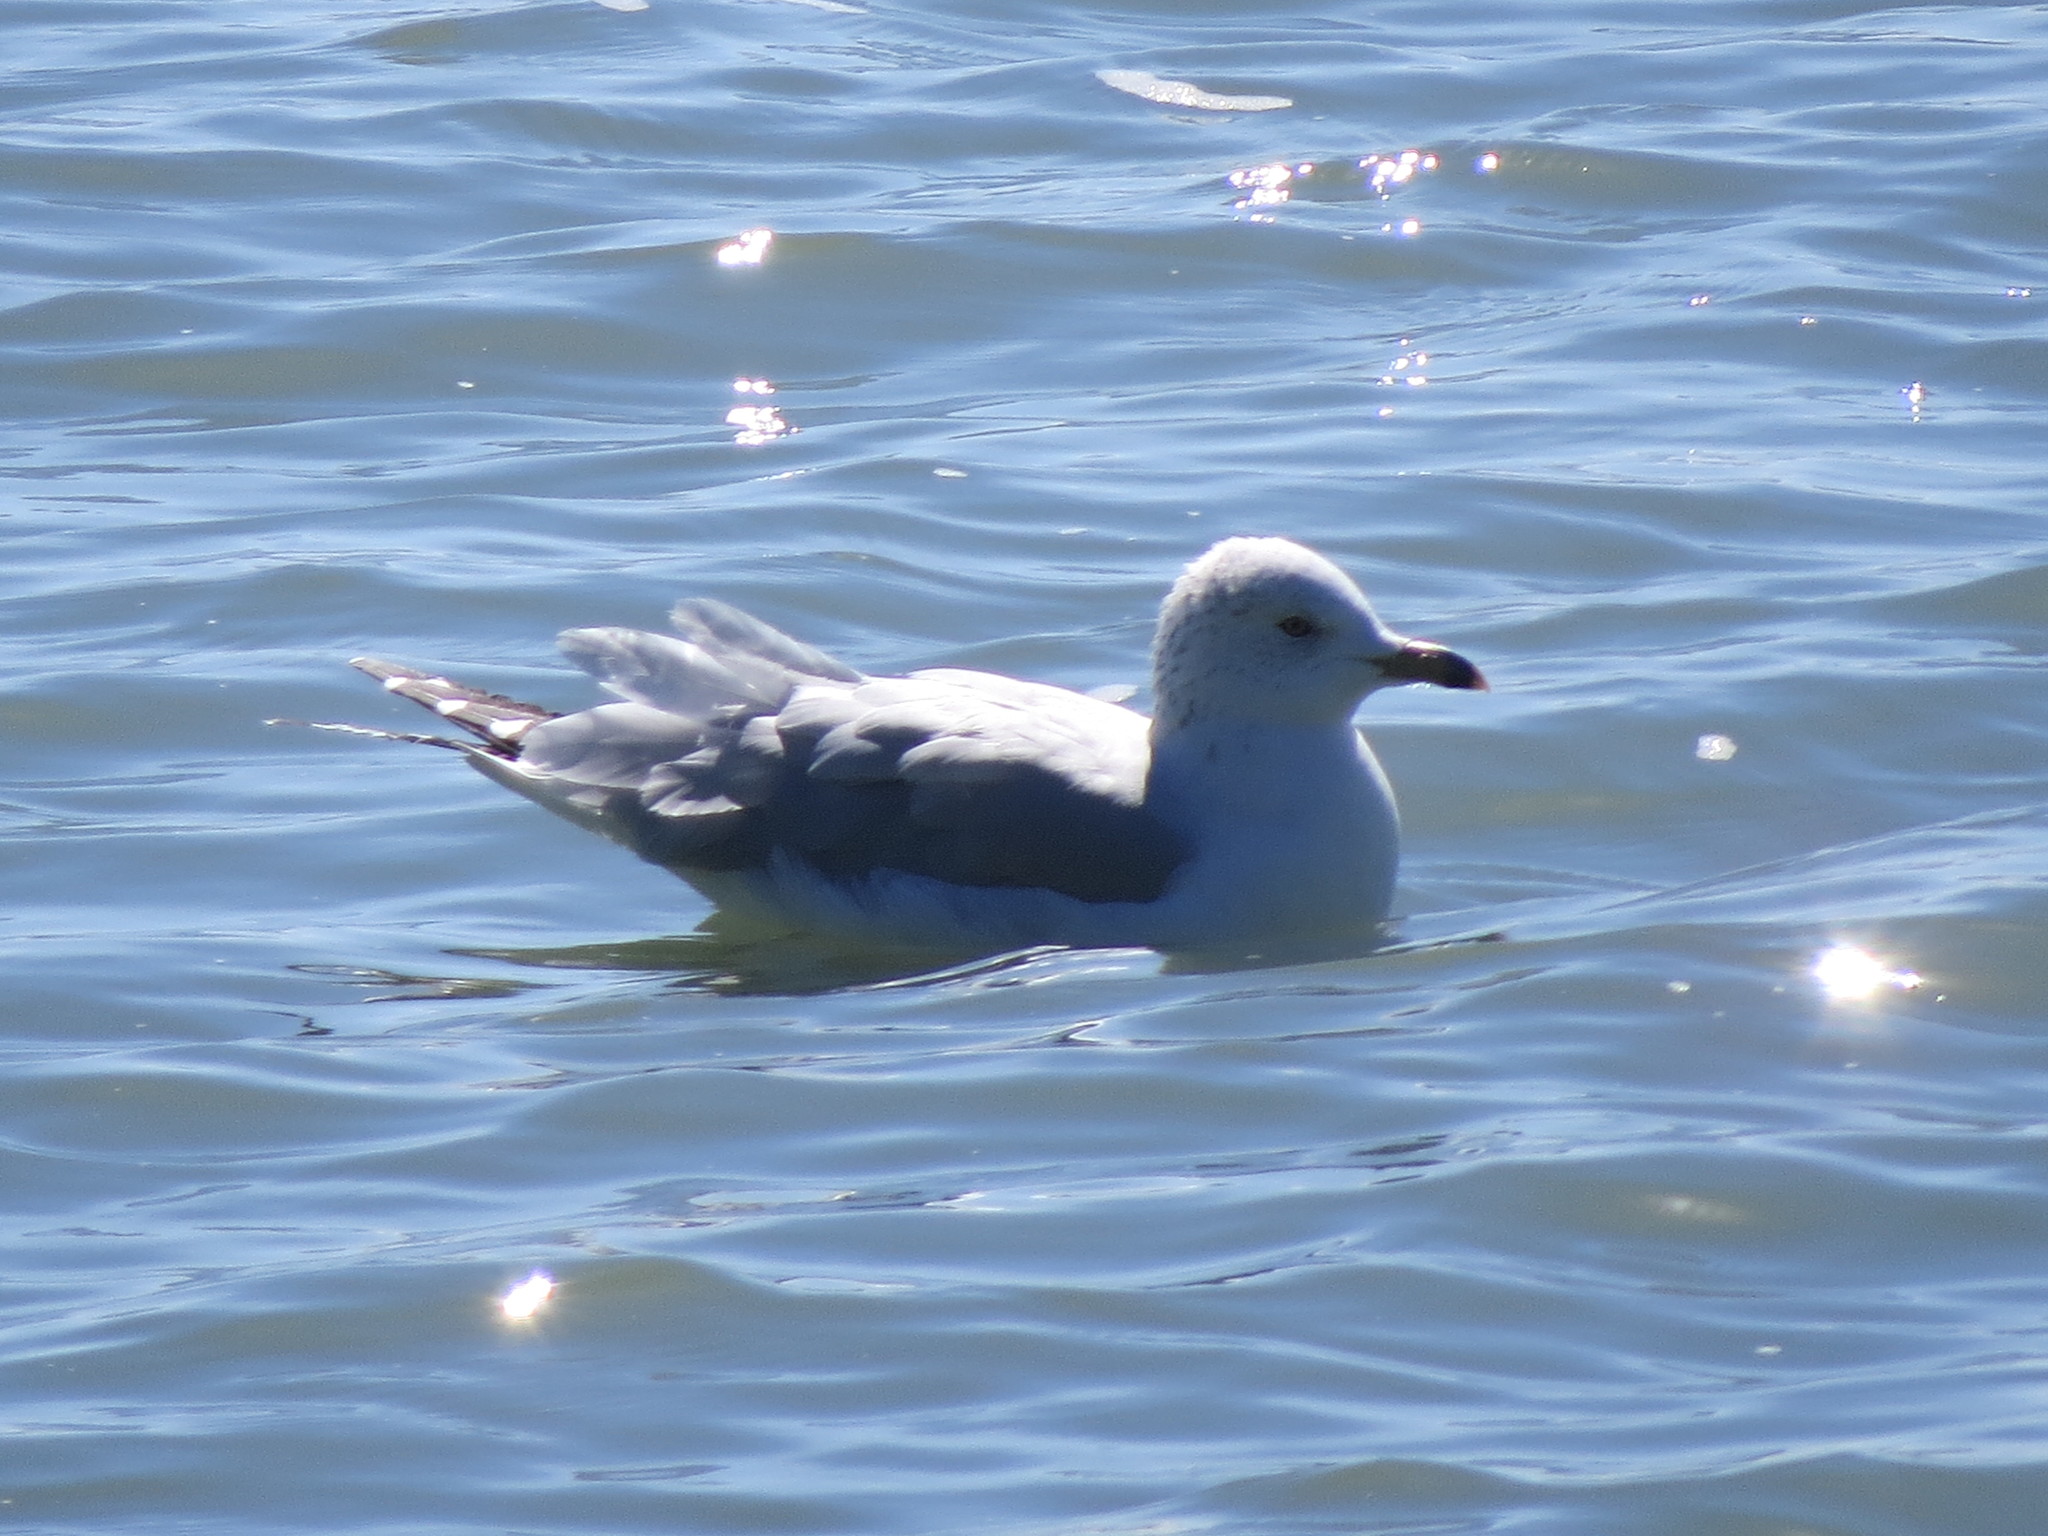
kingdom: Animalia
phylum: Chordata
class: Aves
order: Charadriiformes
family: Laridae
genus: Larus
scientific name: Larus delawarensis
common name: Ring-billed gull
